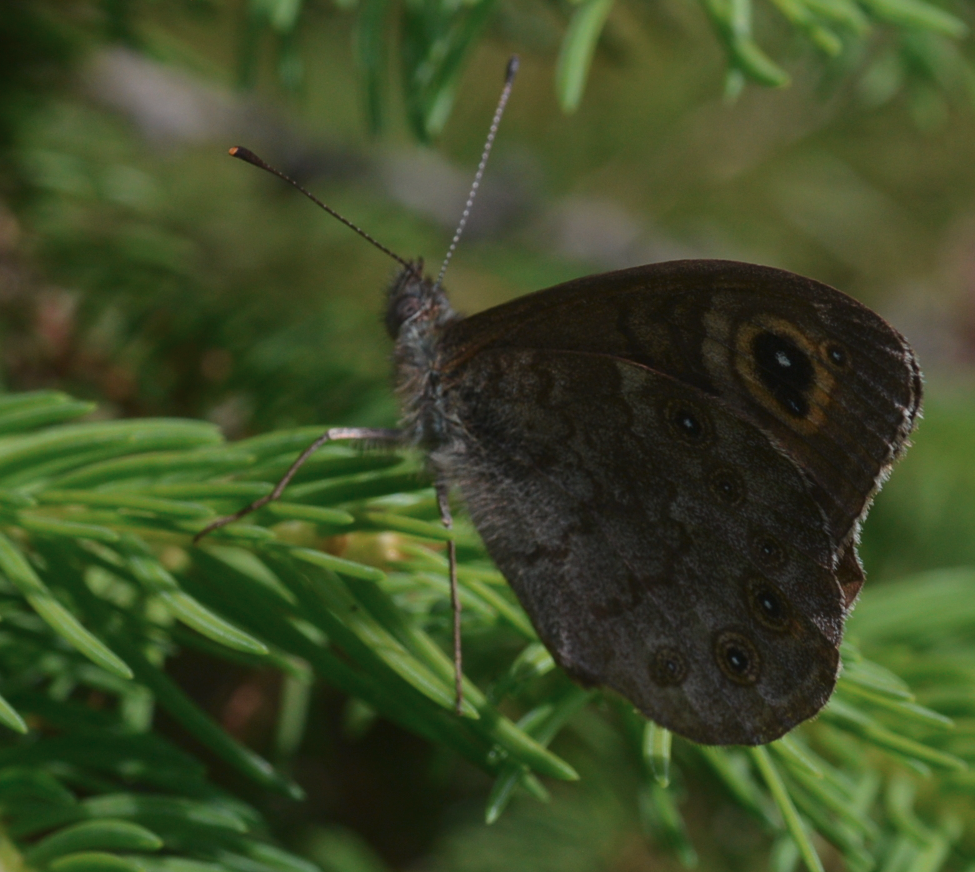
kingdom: Animalia
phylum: Arthropoda
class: Insecta
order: Lepidoptera
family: Nymphalidae
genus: Pararge
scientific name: Pararge Lasiommata maera
